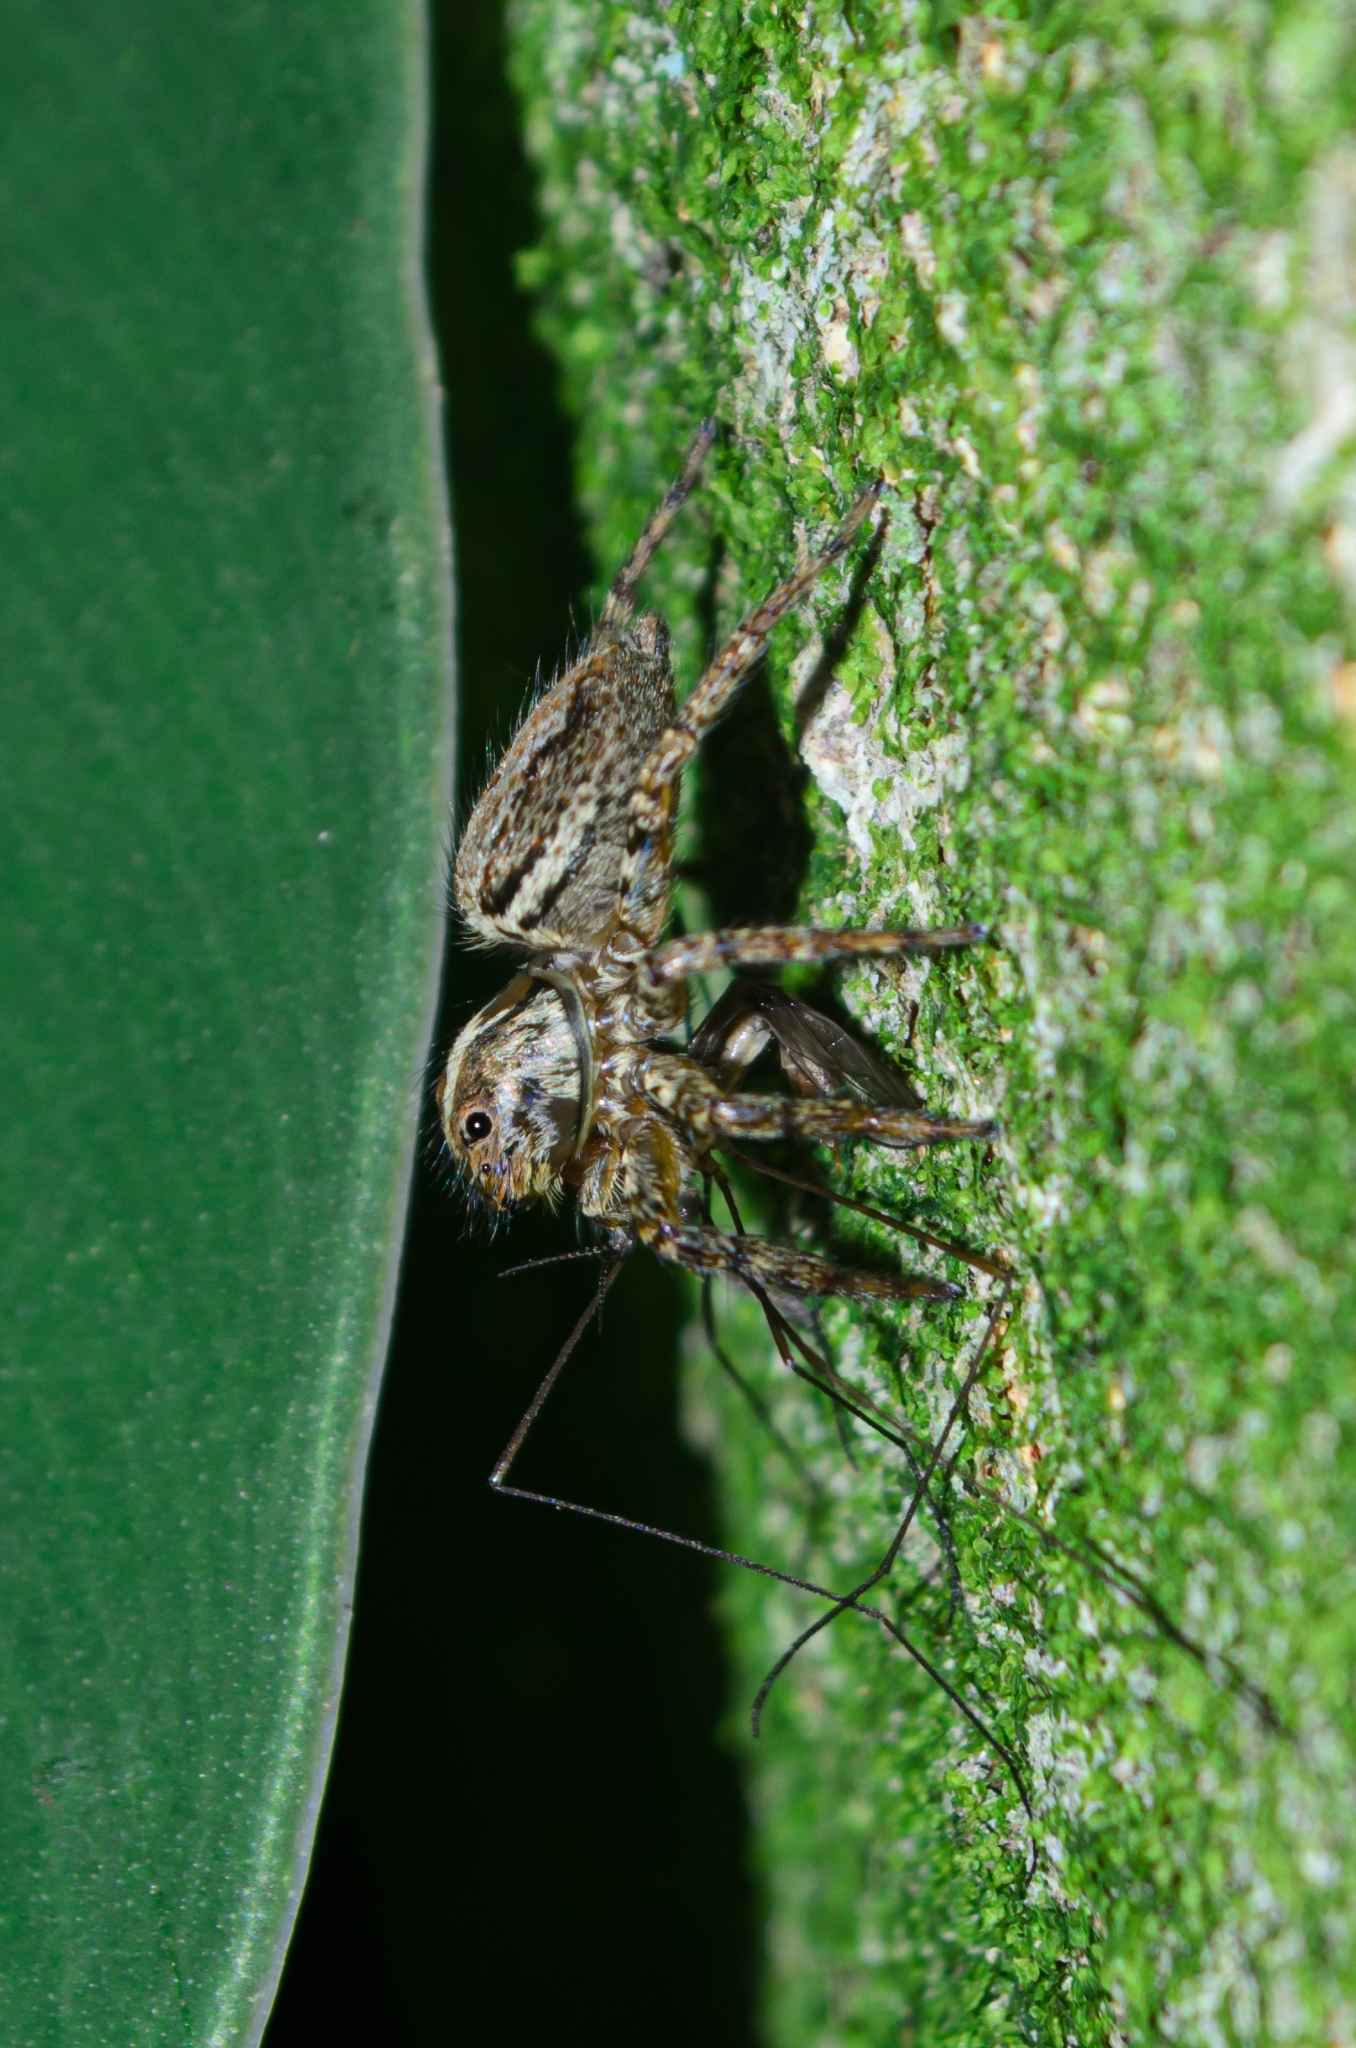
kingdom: Animalia
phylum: Arthropoda
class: Arachnida
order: Araneae
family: Salticidae
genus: Asaphobelis
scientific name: Asaphobelis physonychus
